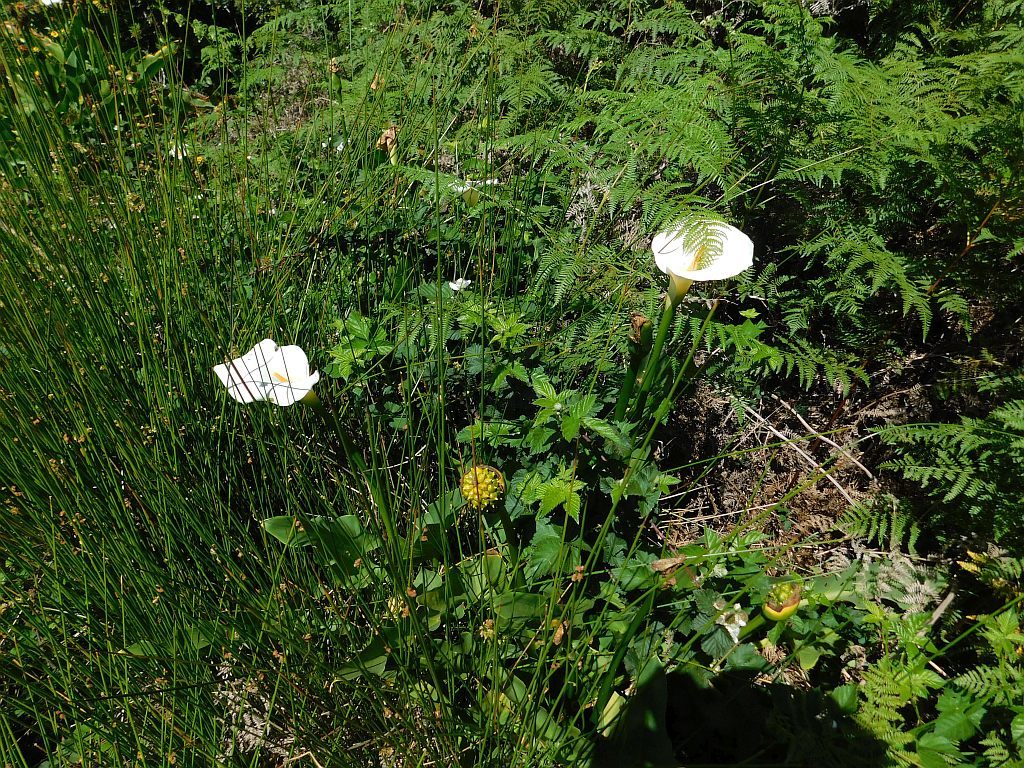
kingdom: Plantae
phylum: Tracheophyta
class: Liliopsida
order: Alismatales
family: Araceae
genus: Zantedeschia
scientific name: Zantedeschia aethiopica
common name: Altar-lily
